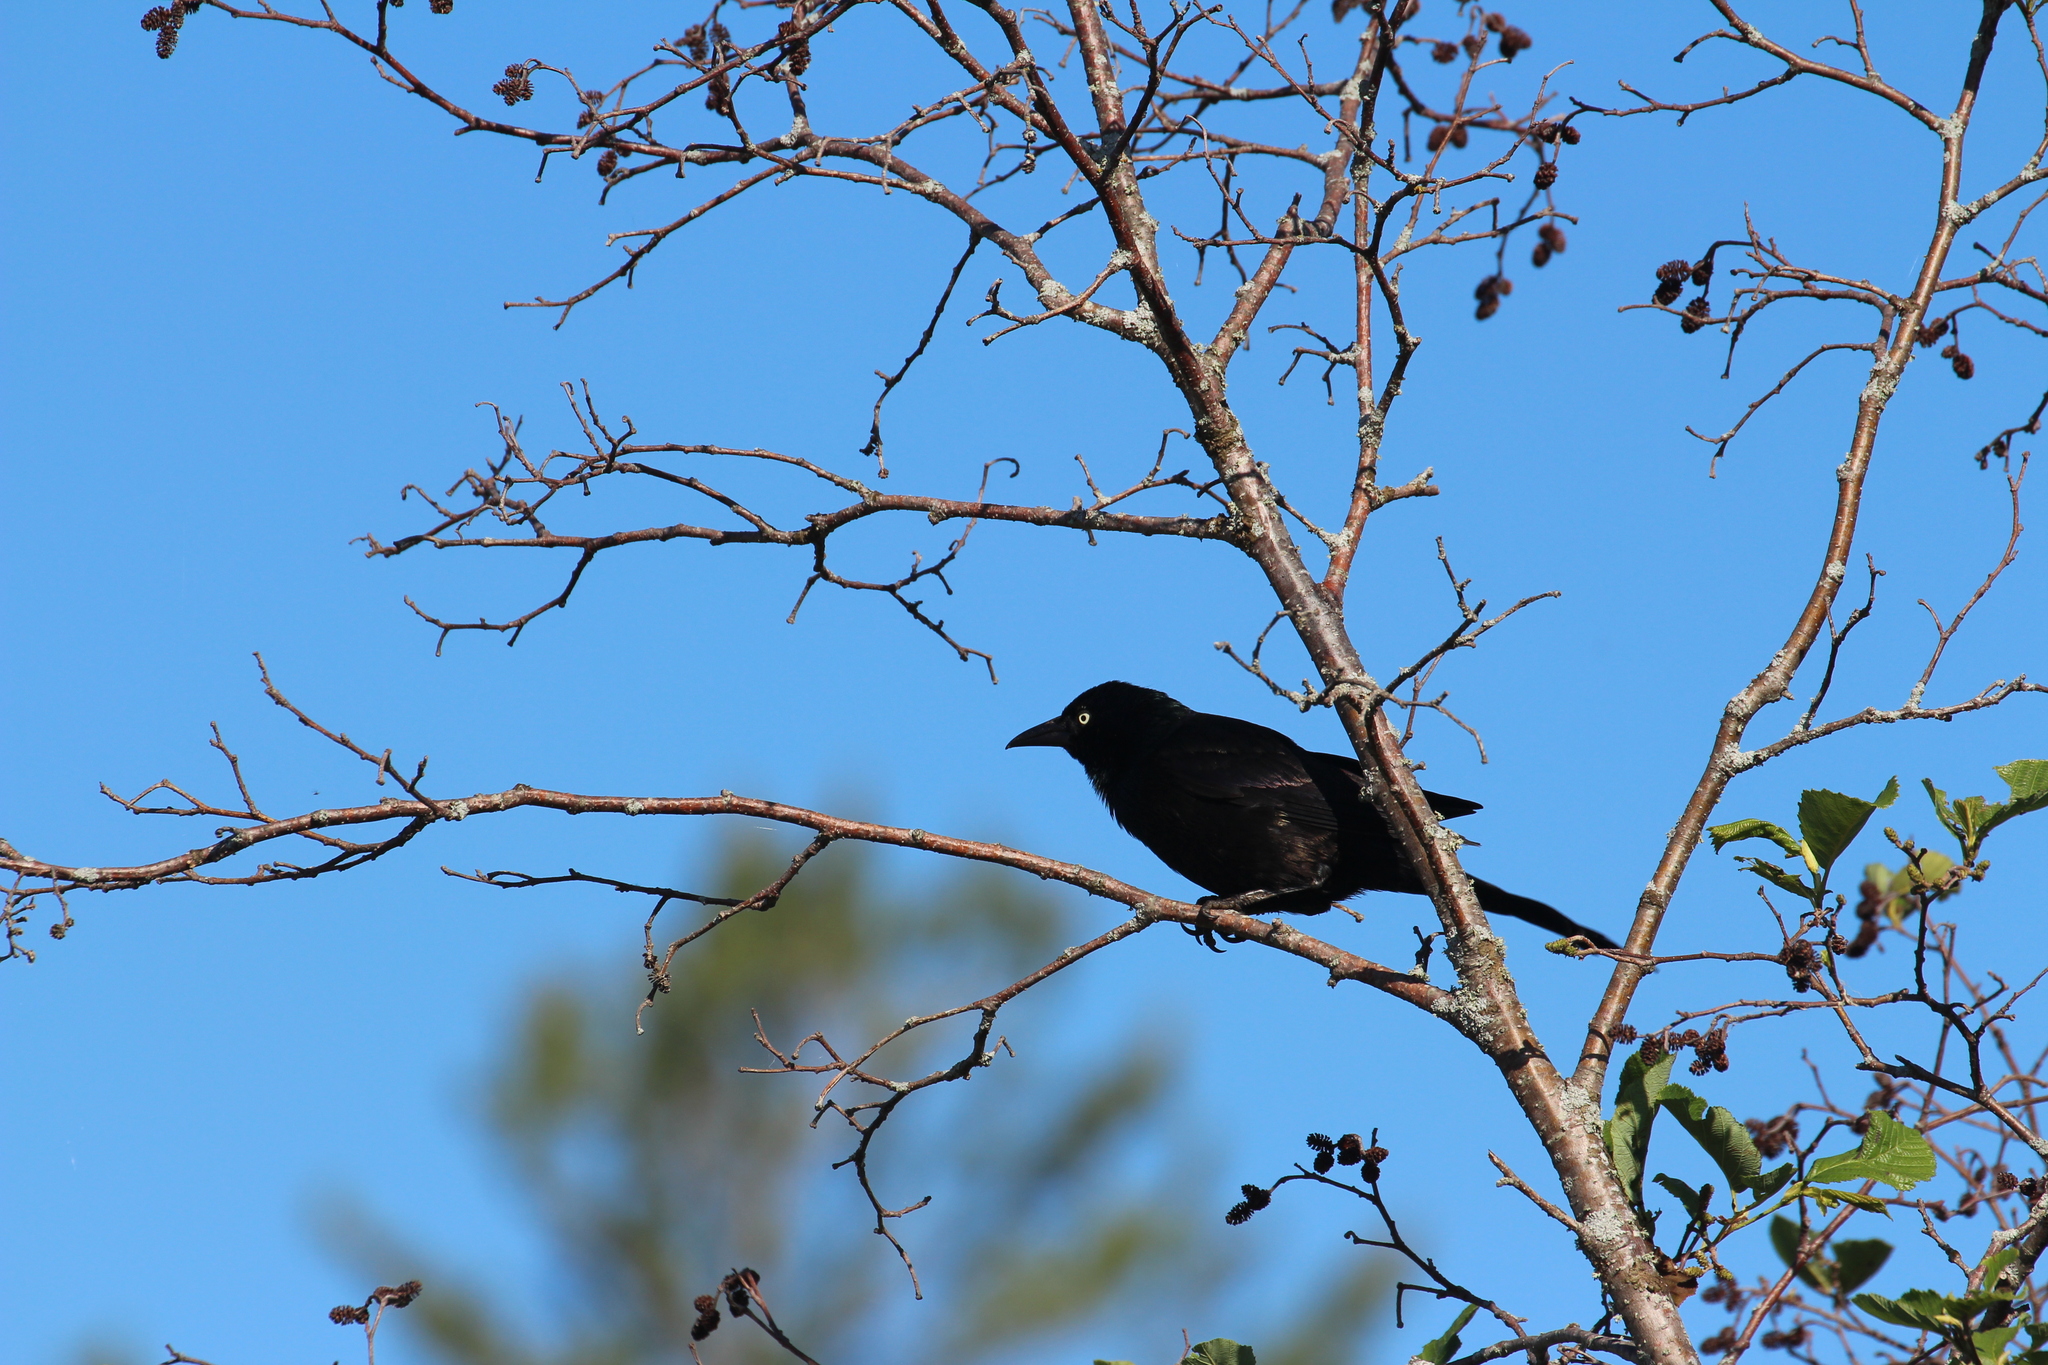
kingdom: Animalia
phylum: Chordata
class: Aves
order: Passeriformes
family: Icteridae
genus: Quiscalus
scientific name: Quiscalus quiscula
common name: Common grackle
